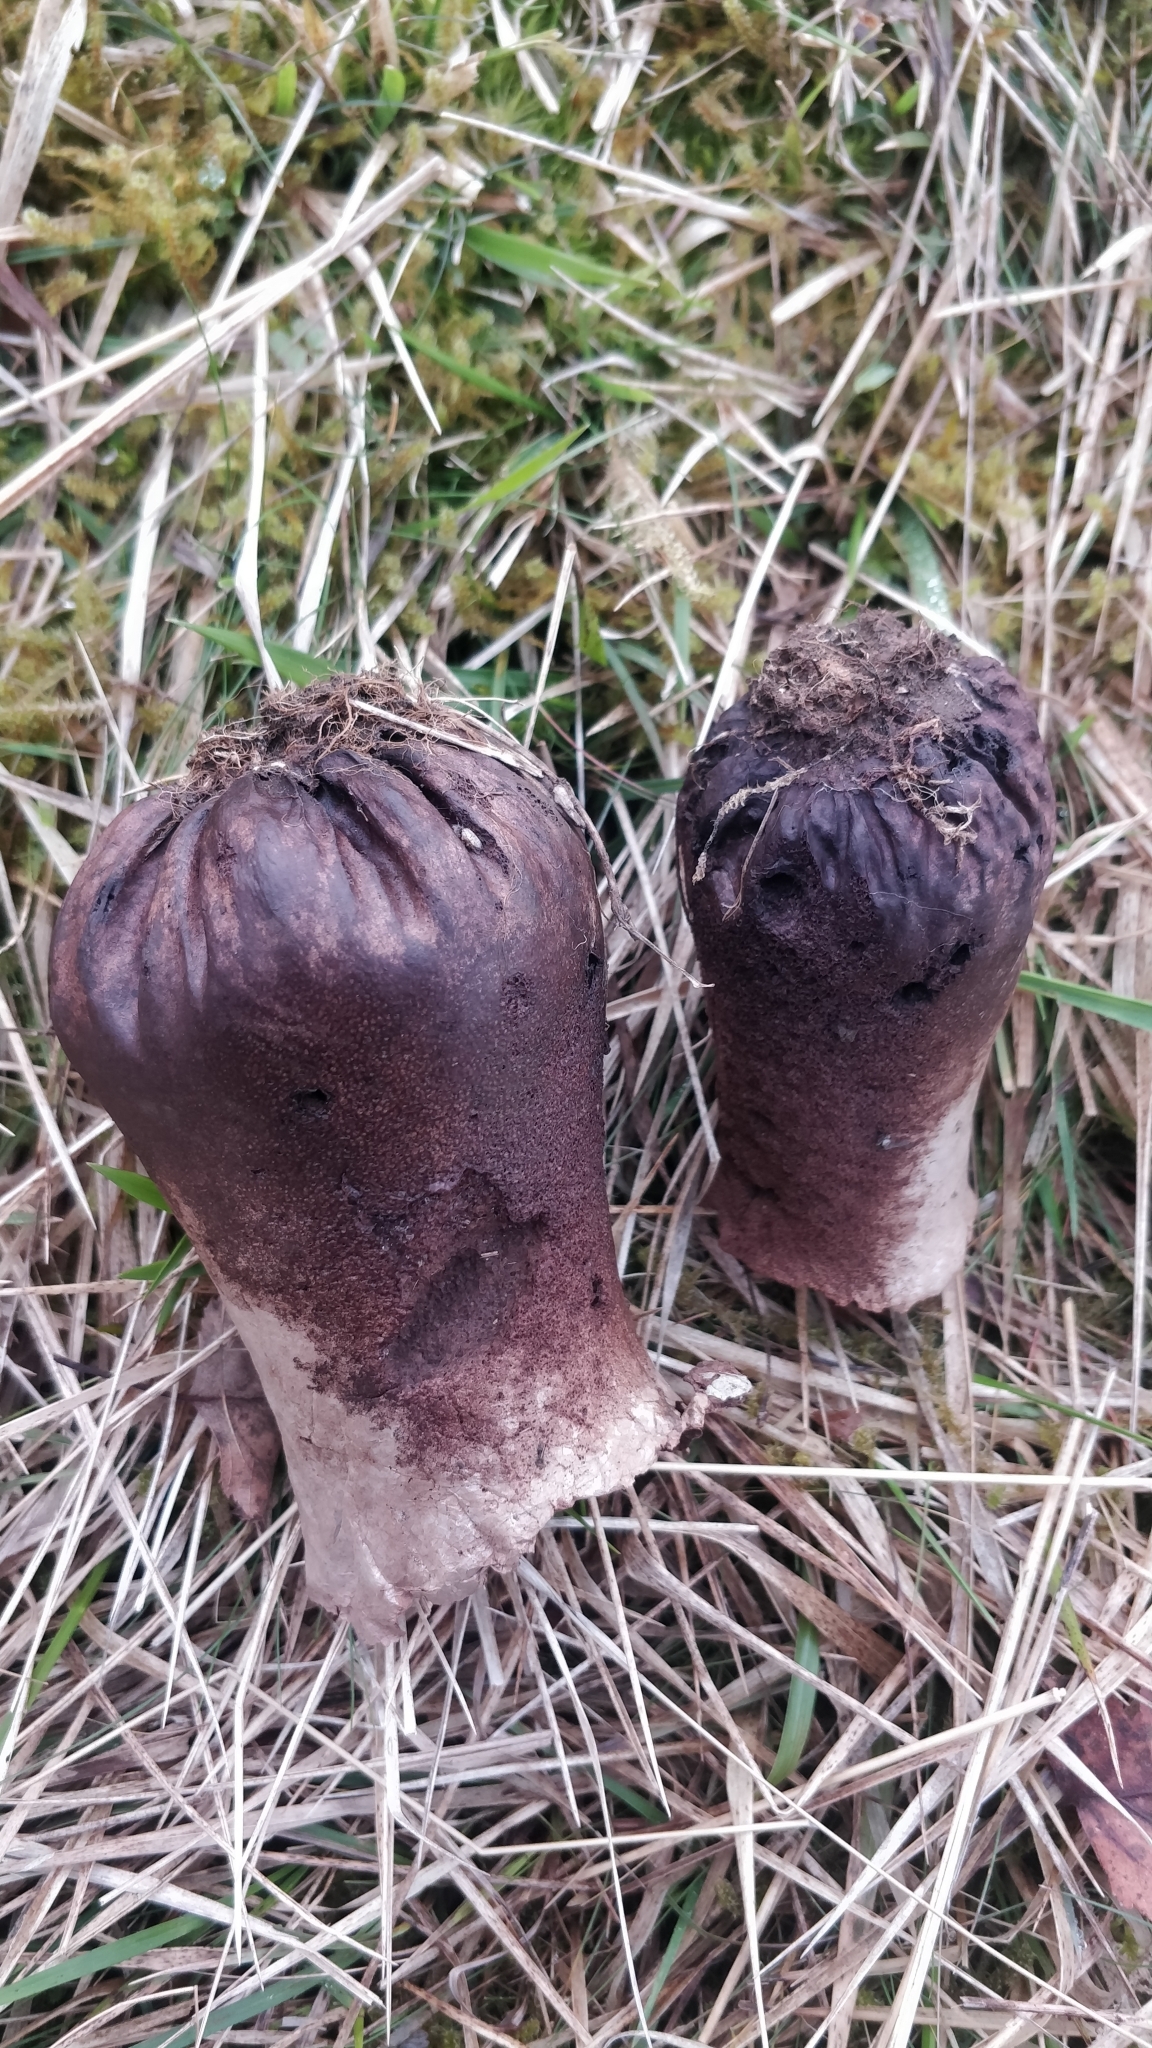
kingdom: Fungi
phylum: Basidiomycota
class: Agaricomycetes
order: Agaricales
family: Lycoperdaceae
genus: Lycoperdon
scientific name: Lycoperdon excipuliforme
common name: Pestle puffball
